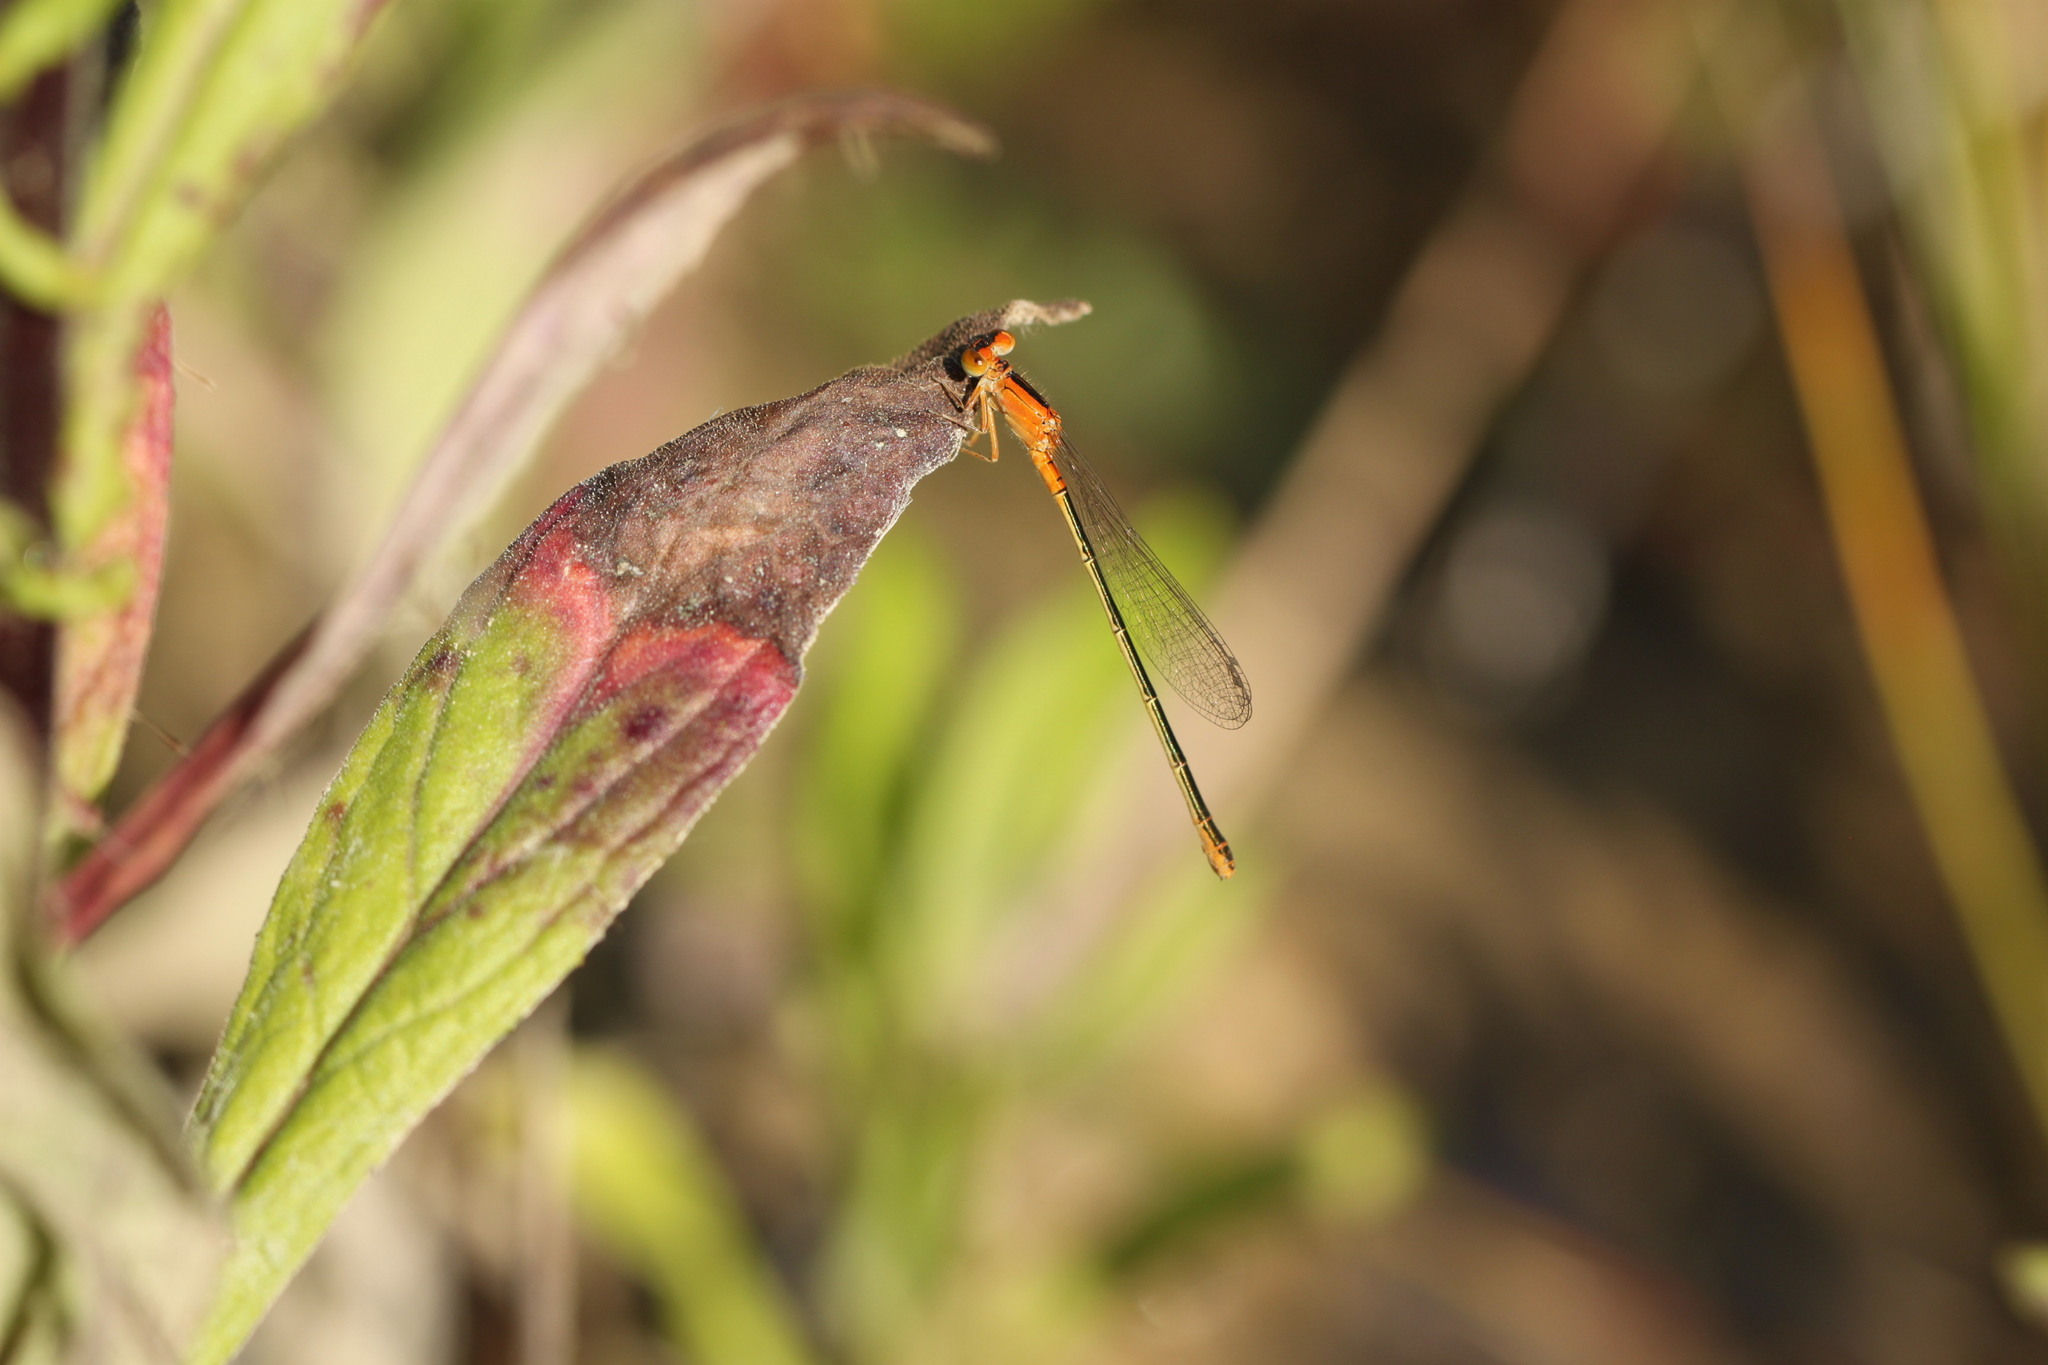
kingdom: Animalia
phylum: Arthropoda
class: Insecta
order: Odonata
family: Coenagrionidae
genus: Ischnura
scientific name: Ischnura intermedia
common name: Dumont's bluetail
